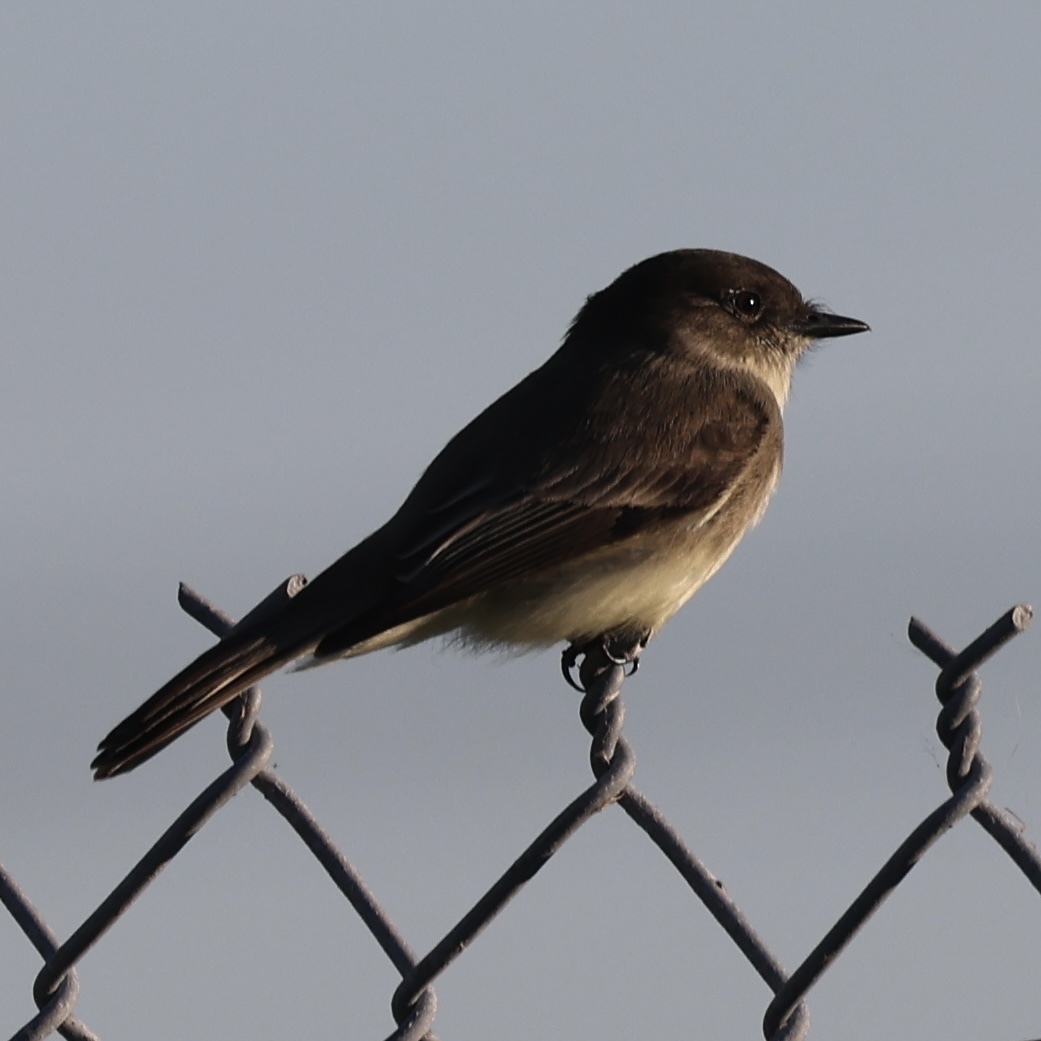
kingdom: Animalia
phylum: Chordata
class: Aves
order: Passeriformes
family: Tyrannidae
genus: Sayornis
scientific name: Sayornis phoebe
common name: Eastern phoebe
